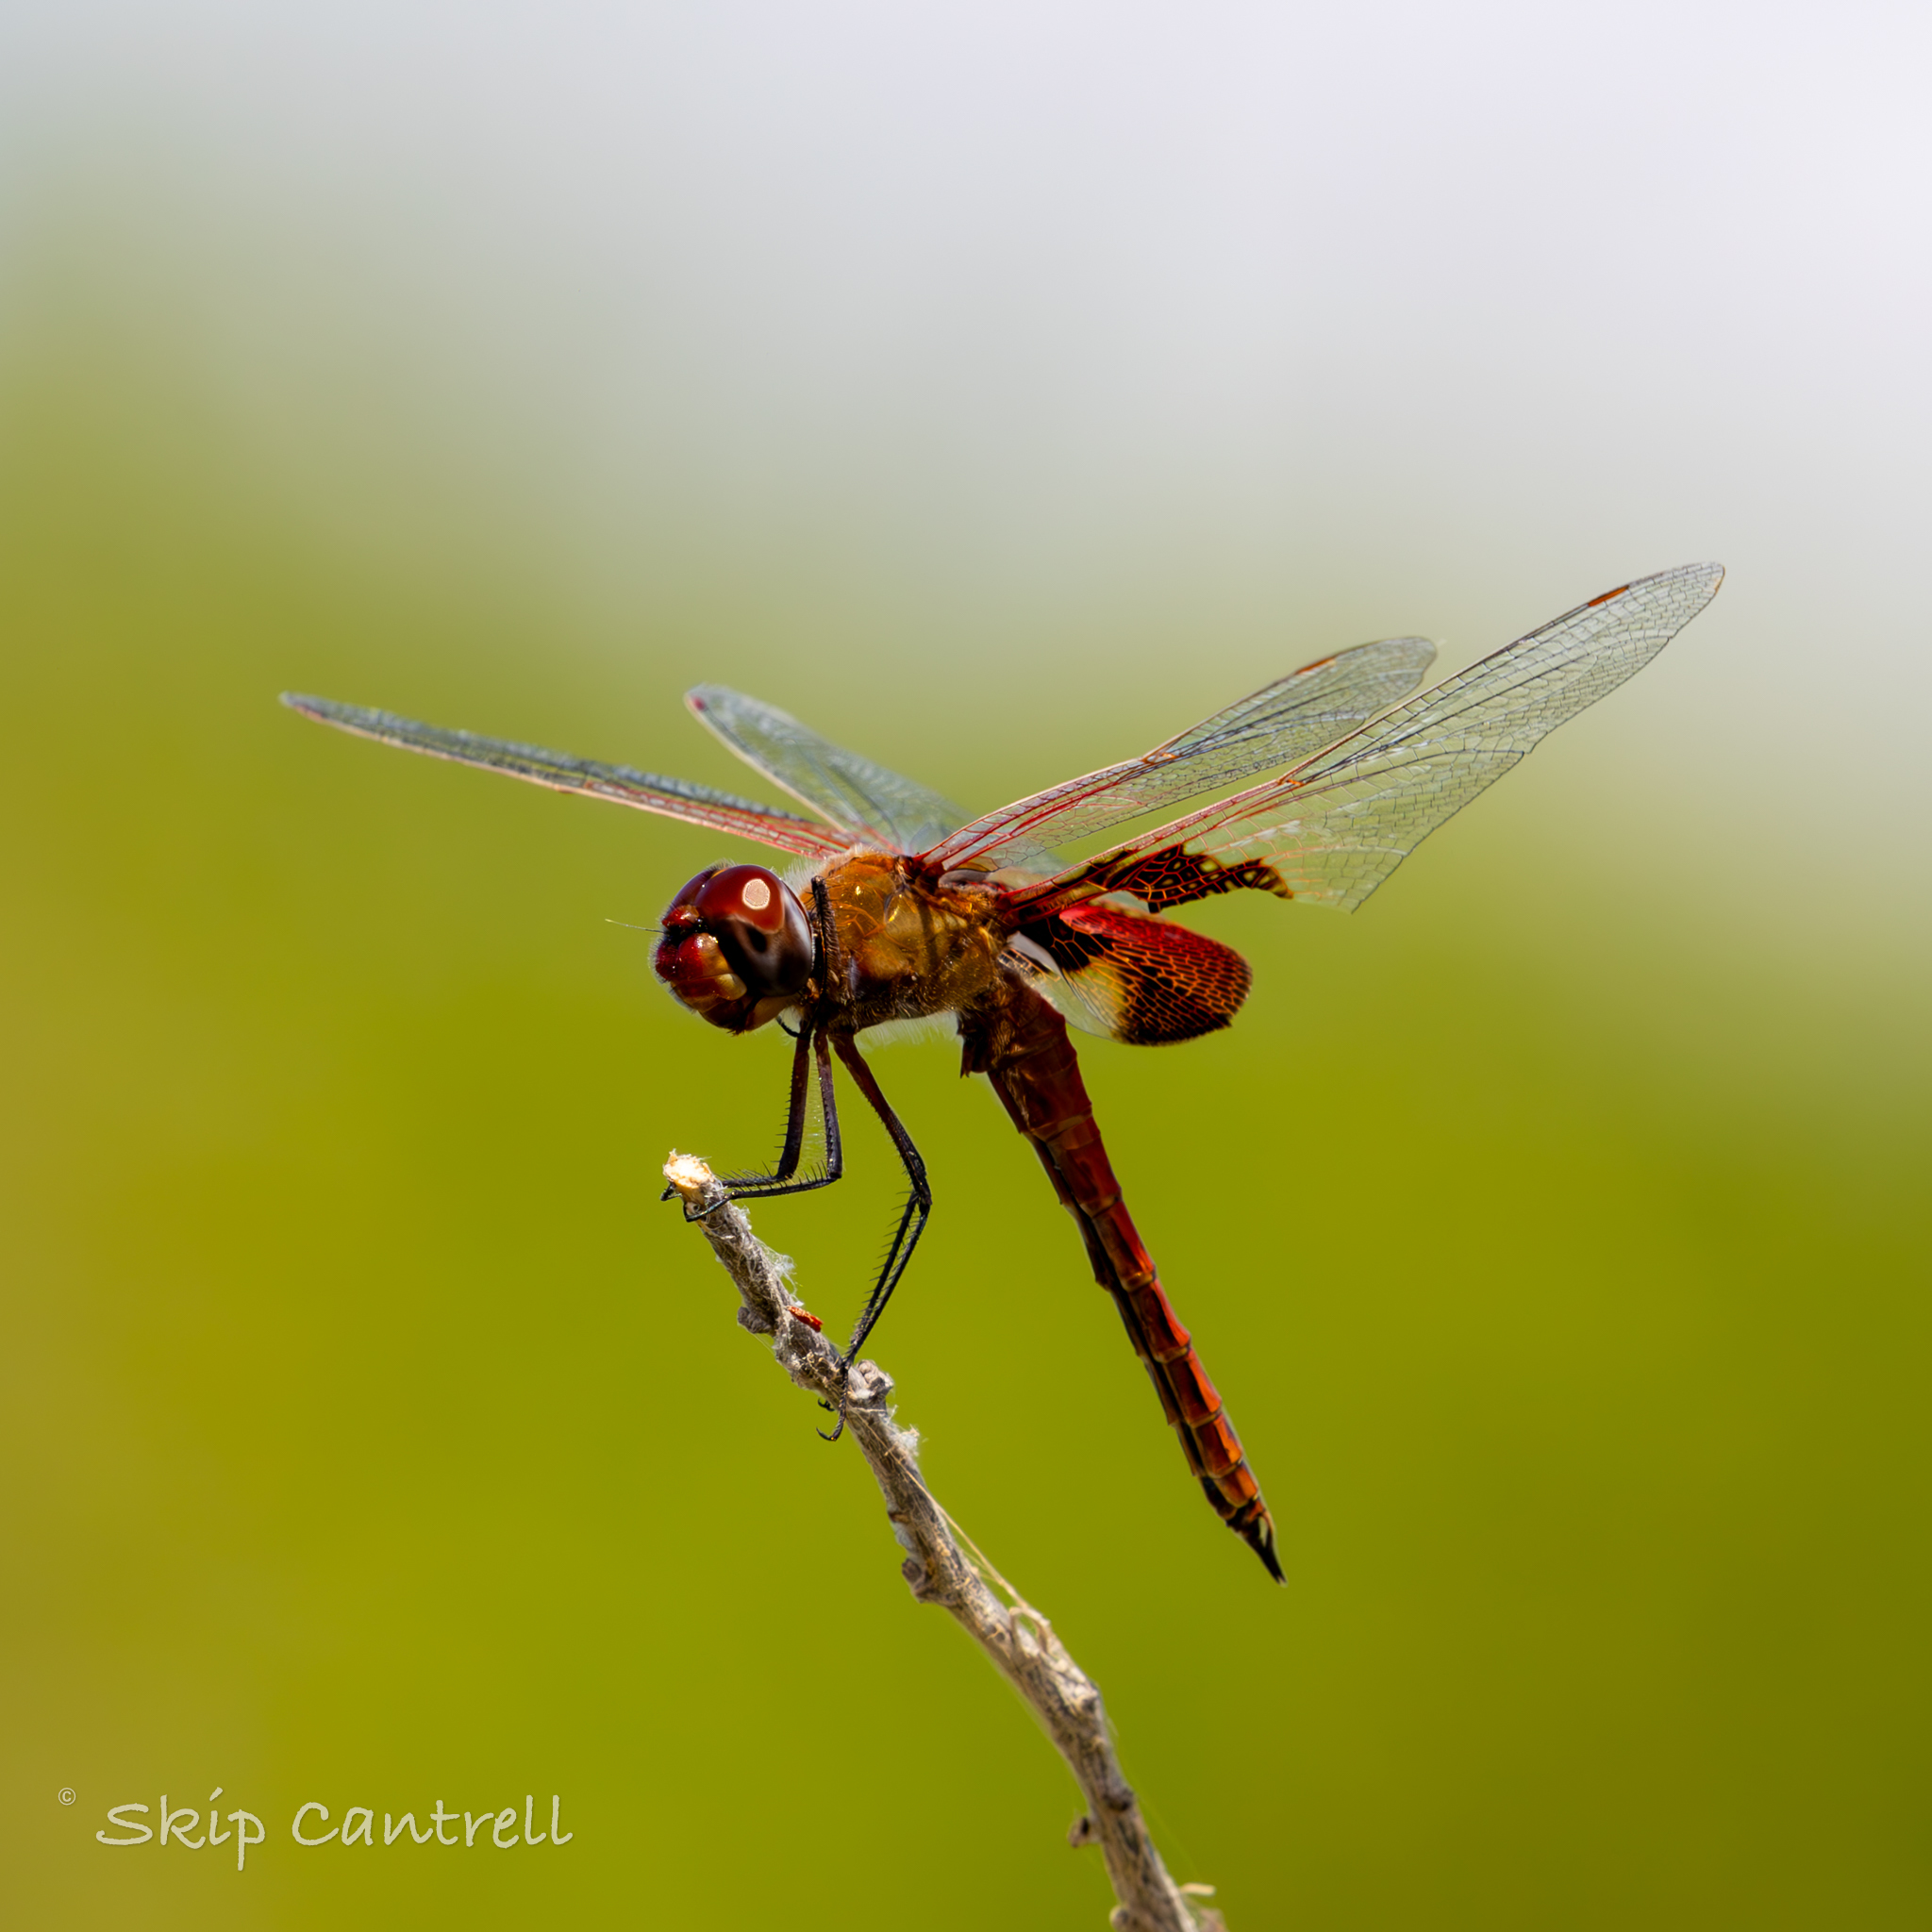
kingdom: Animalia
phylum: Arthropoda
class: Insecta
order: Odonata
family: Libellulidae
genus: Tramea
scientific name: Tramea onusta
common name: Red saddlebags
